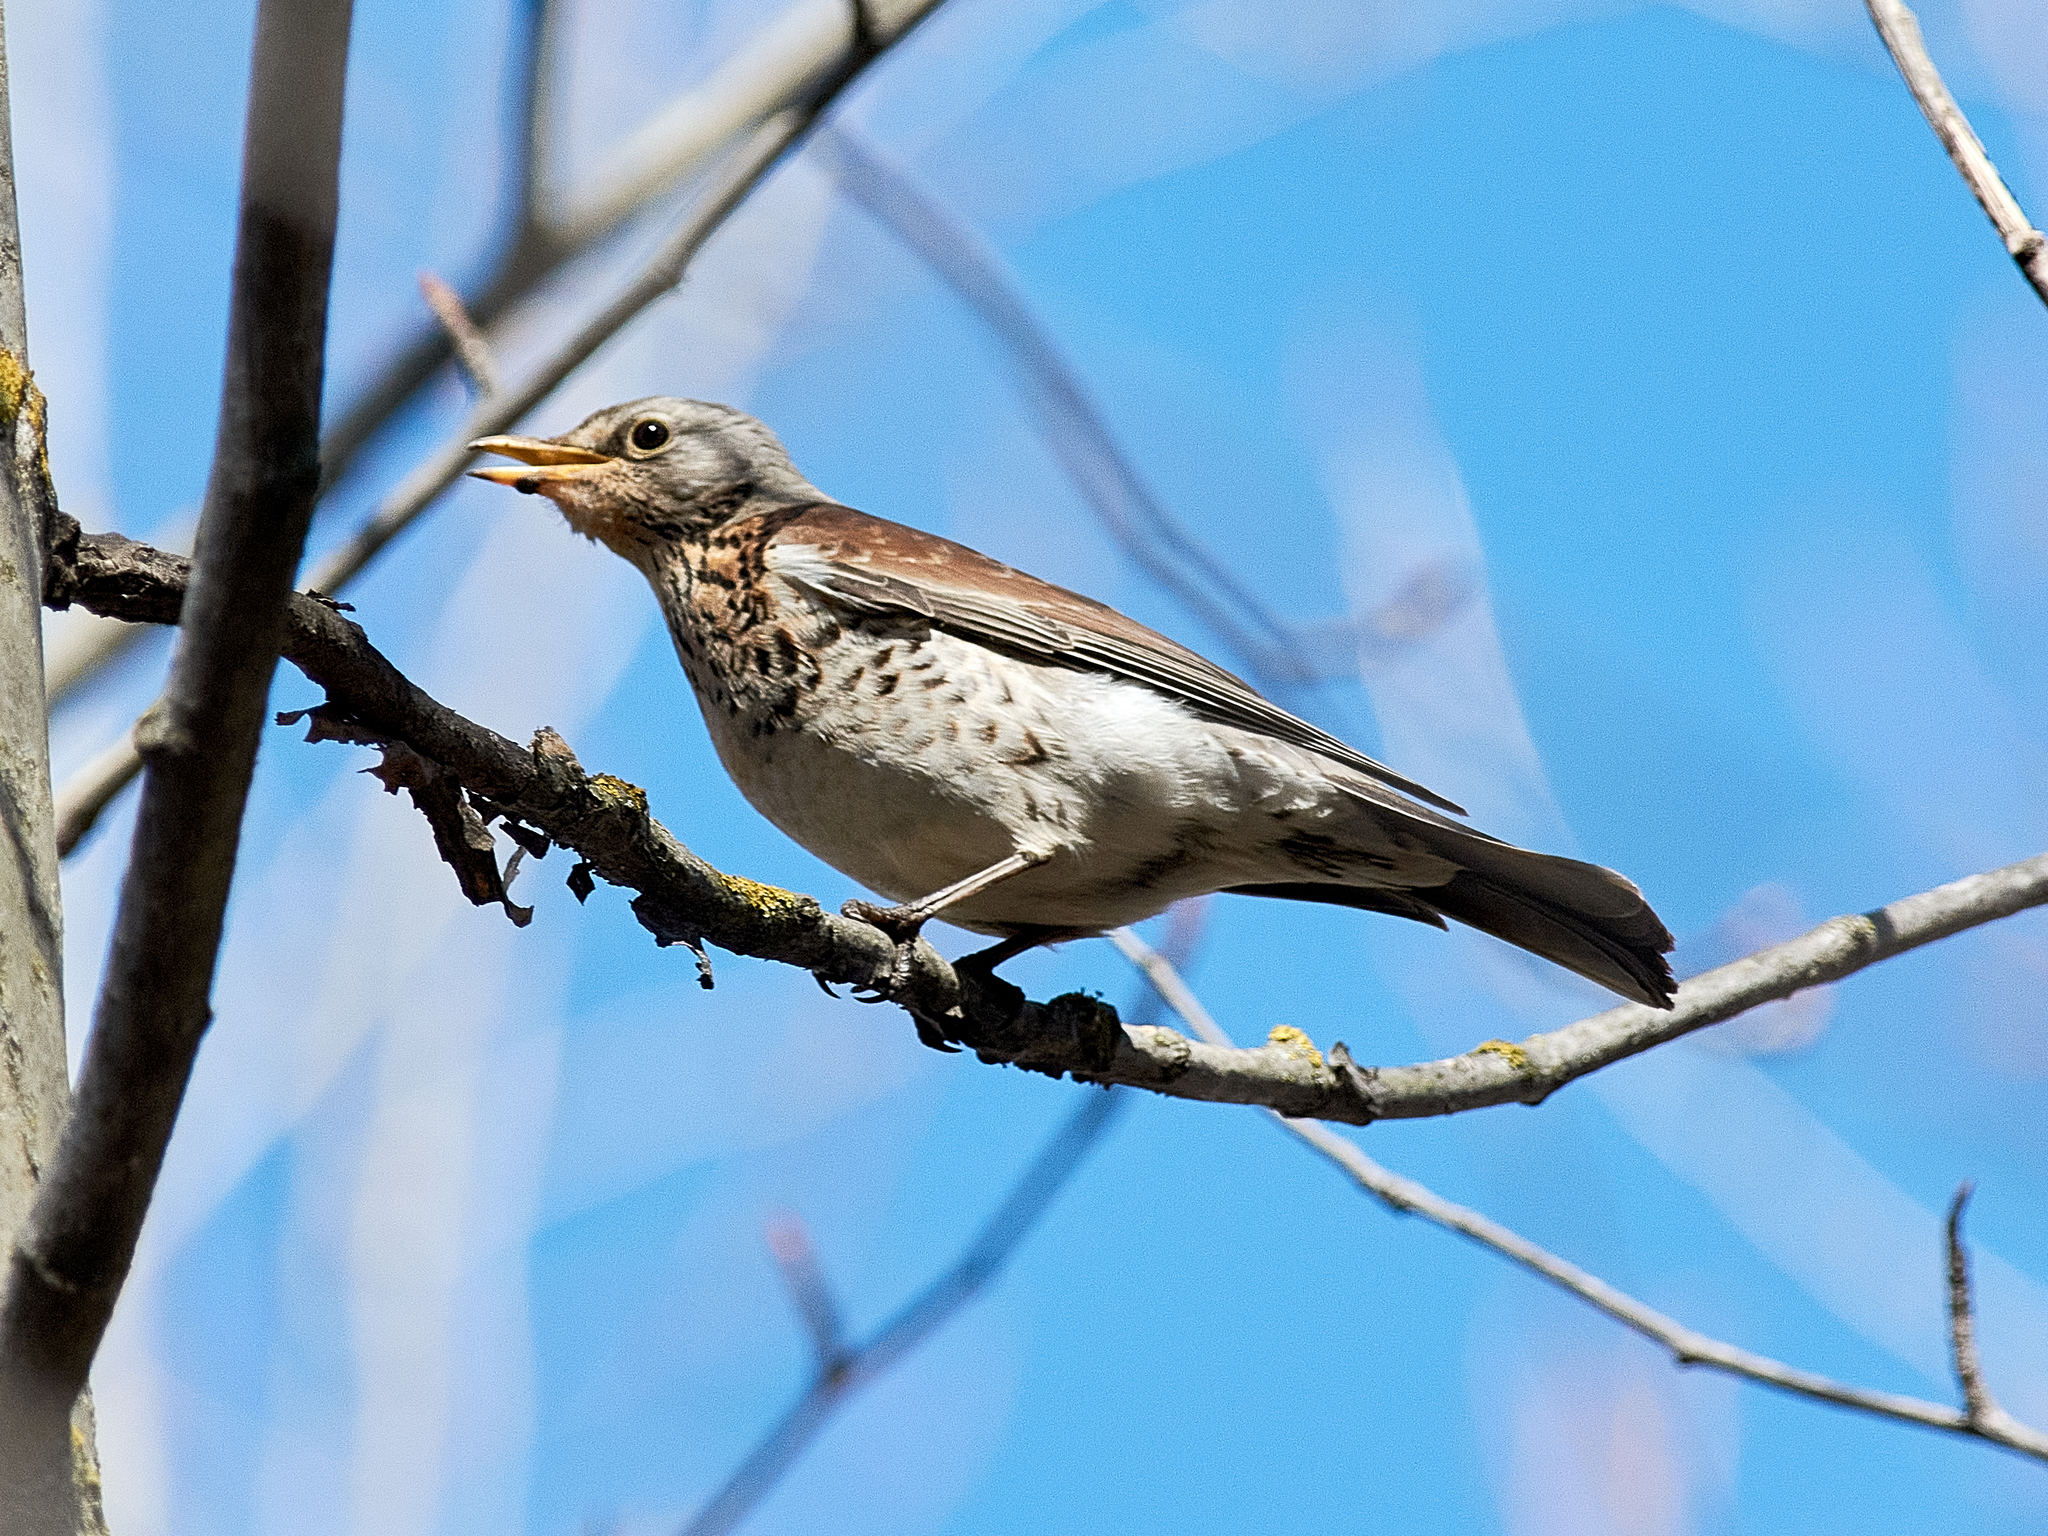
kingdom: Animalia
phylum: Chordata
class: Aves
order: Passeriformes
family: Turdidae
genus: Turdus
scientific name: Turdus pilaris
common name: Fieldfare
